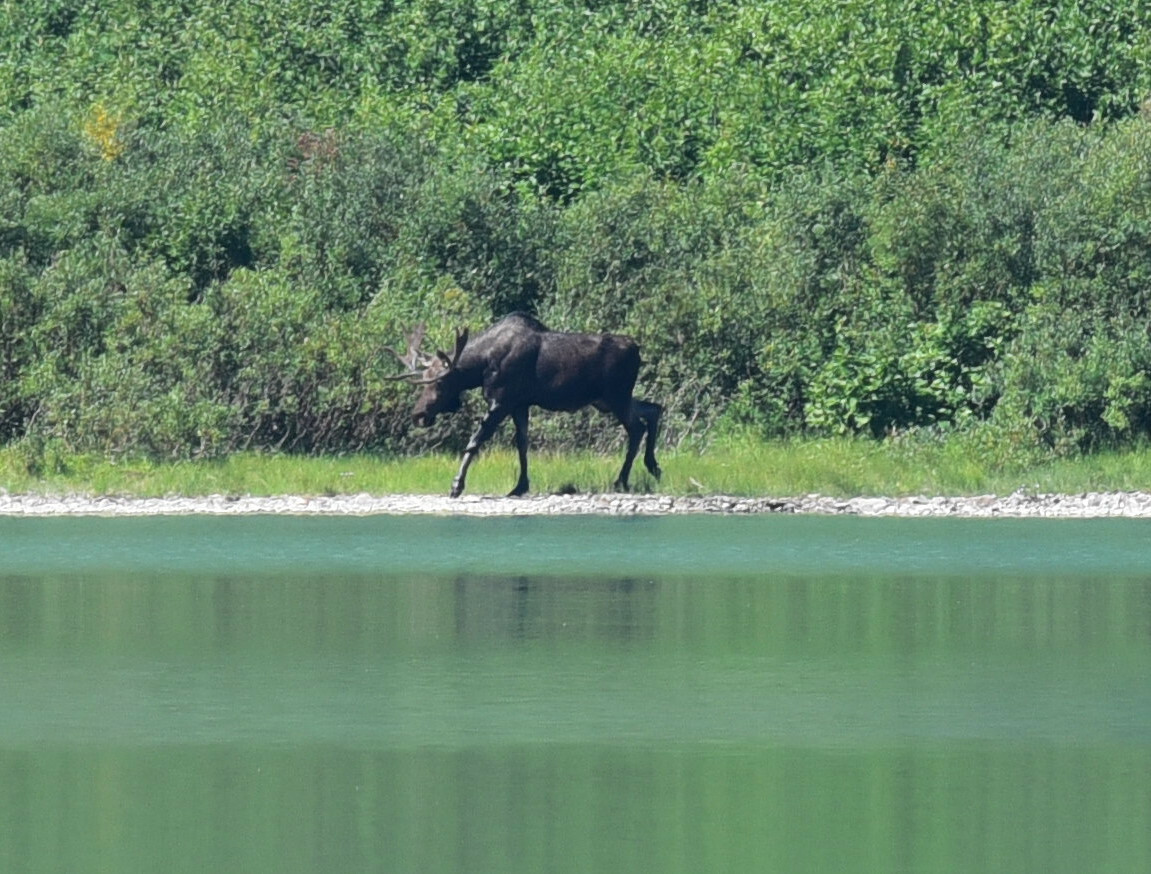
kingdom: Animalia
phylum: Chordata
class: Mammalia
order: Artiodactyla
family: Cervidae
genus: Alces
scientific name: Alces americanus
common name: Moose
